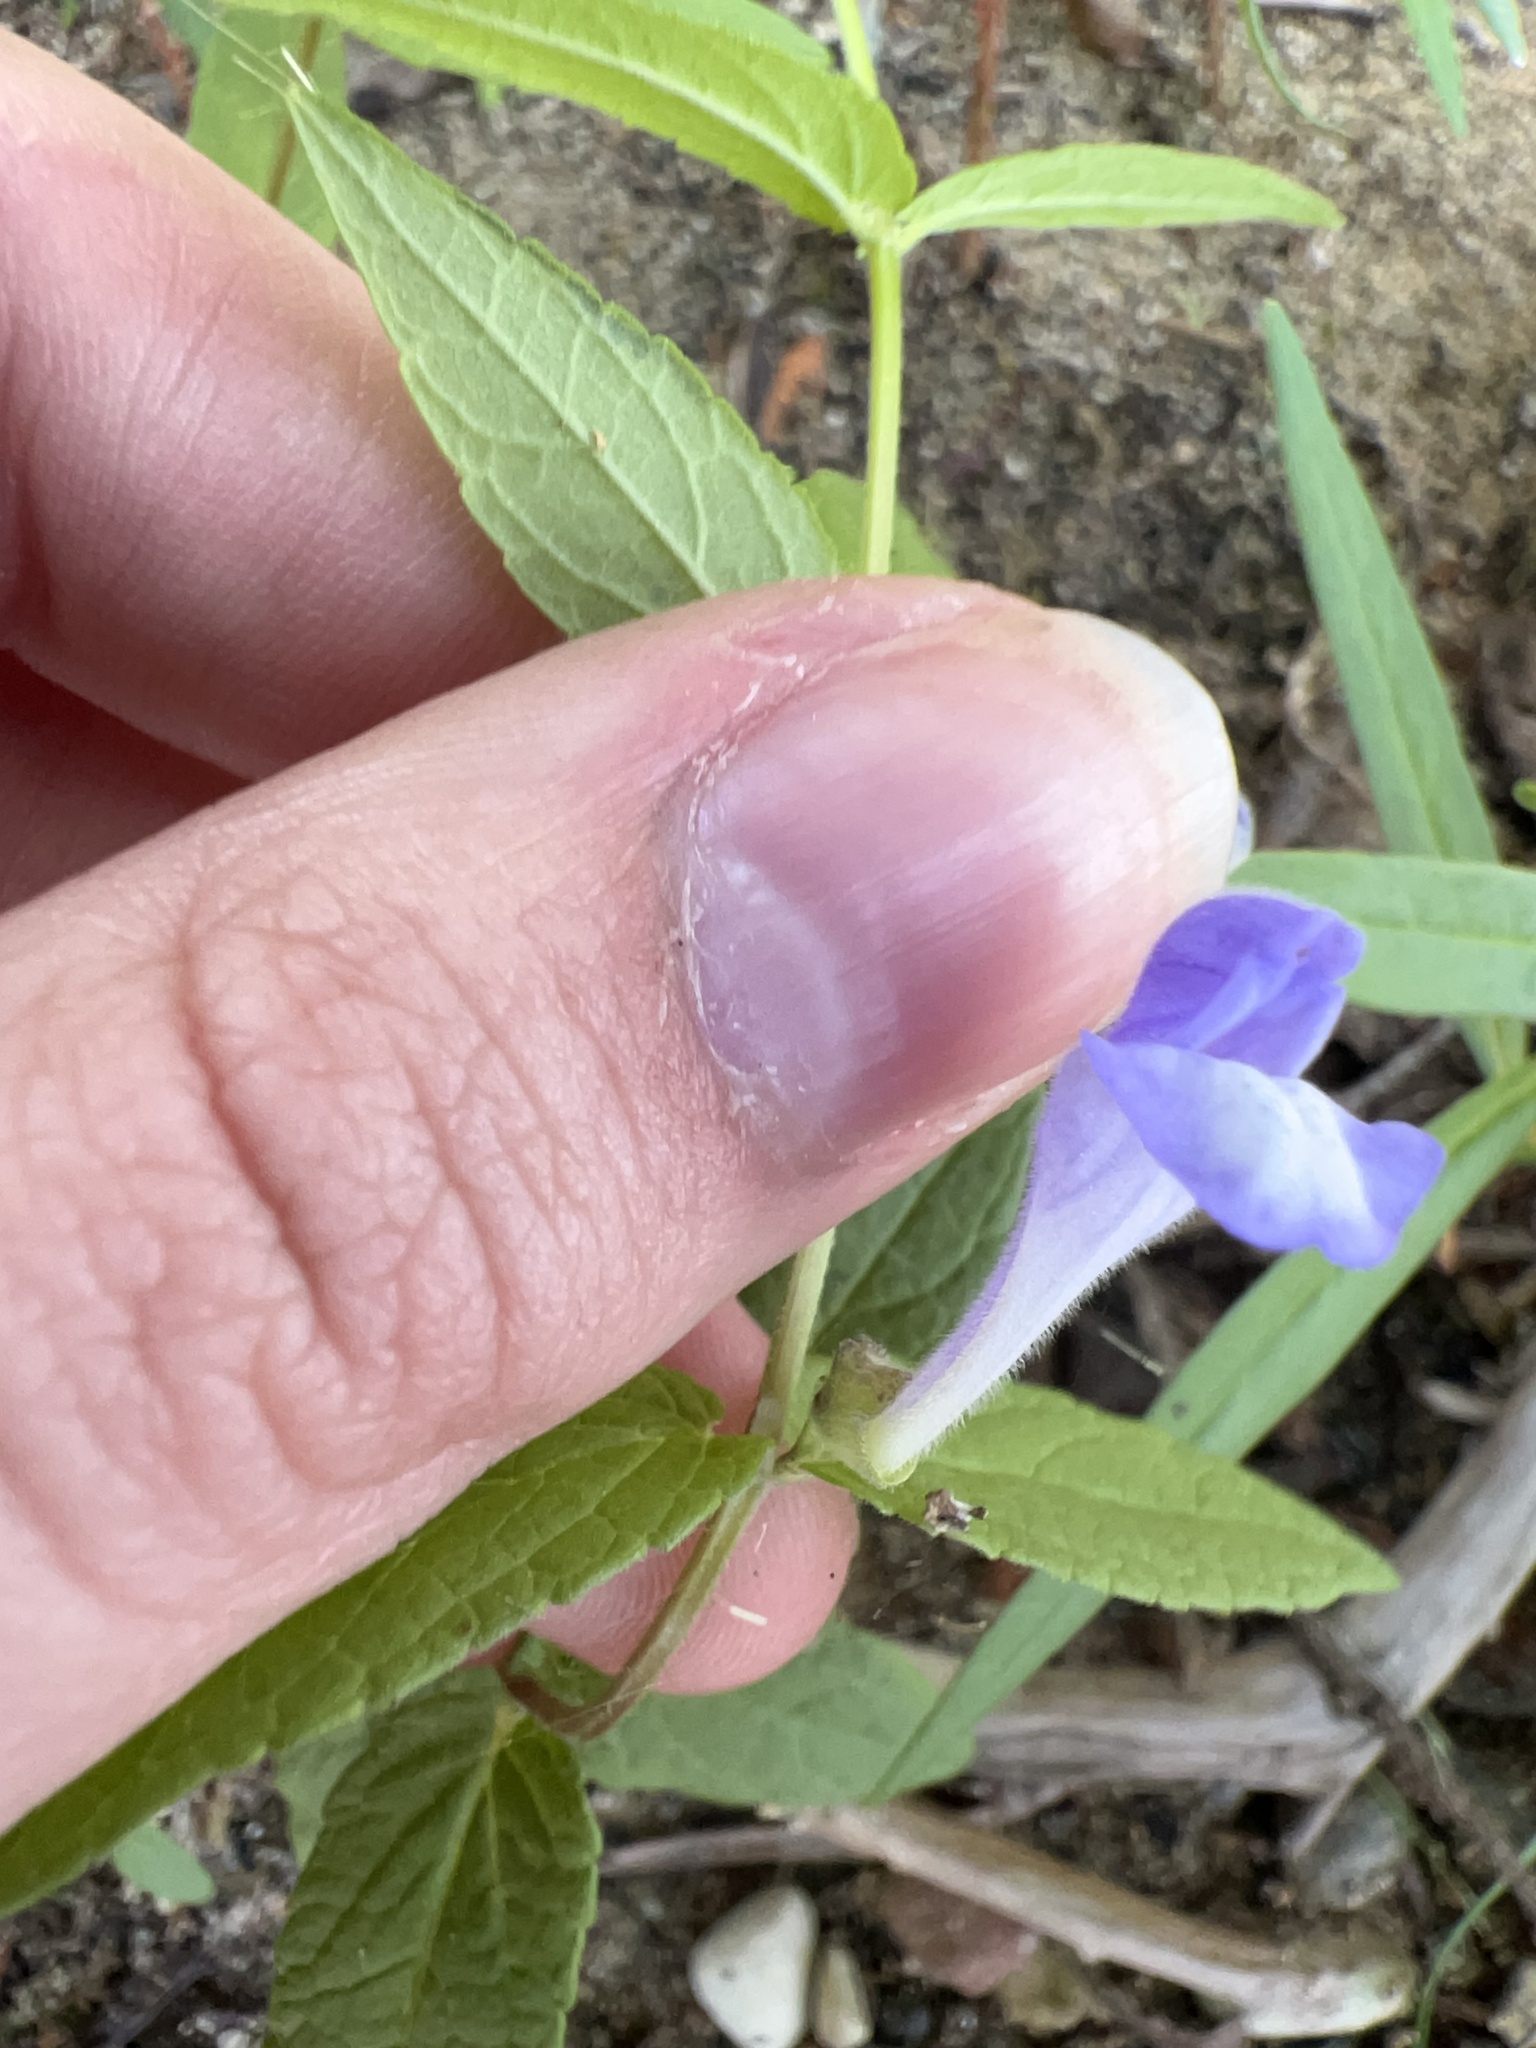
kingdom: Plantae
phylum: Tracheophyta
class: Magnoliopsida
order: Lamiales
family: Lamiaceae
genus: Scutellaria
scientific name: Scutellaria galericulata
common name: Skullcap
